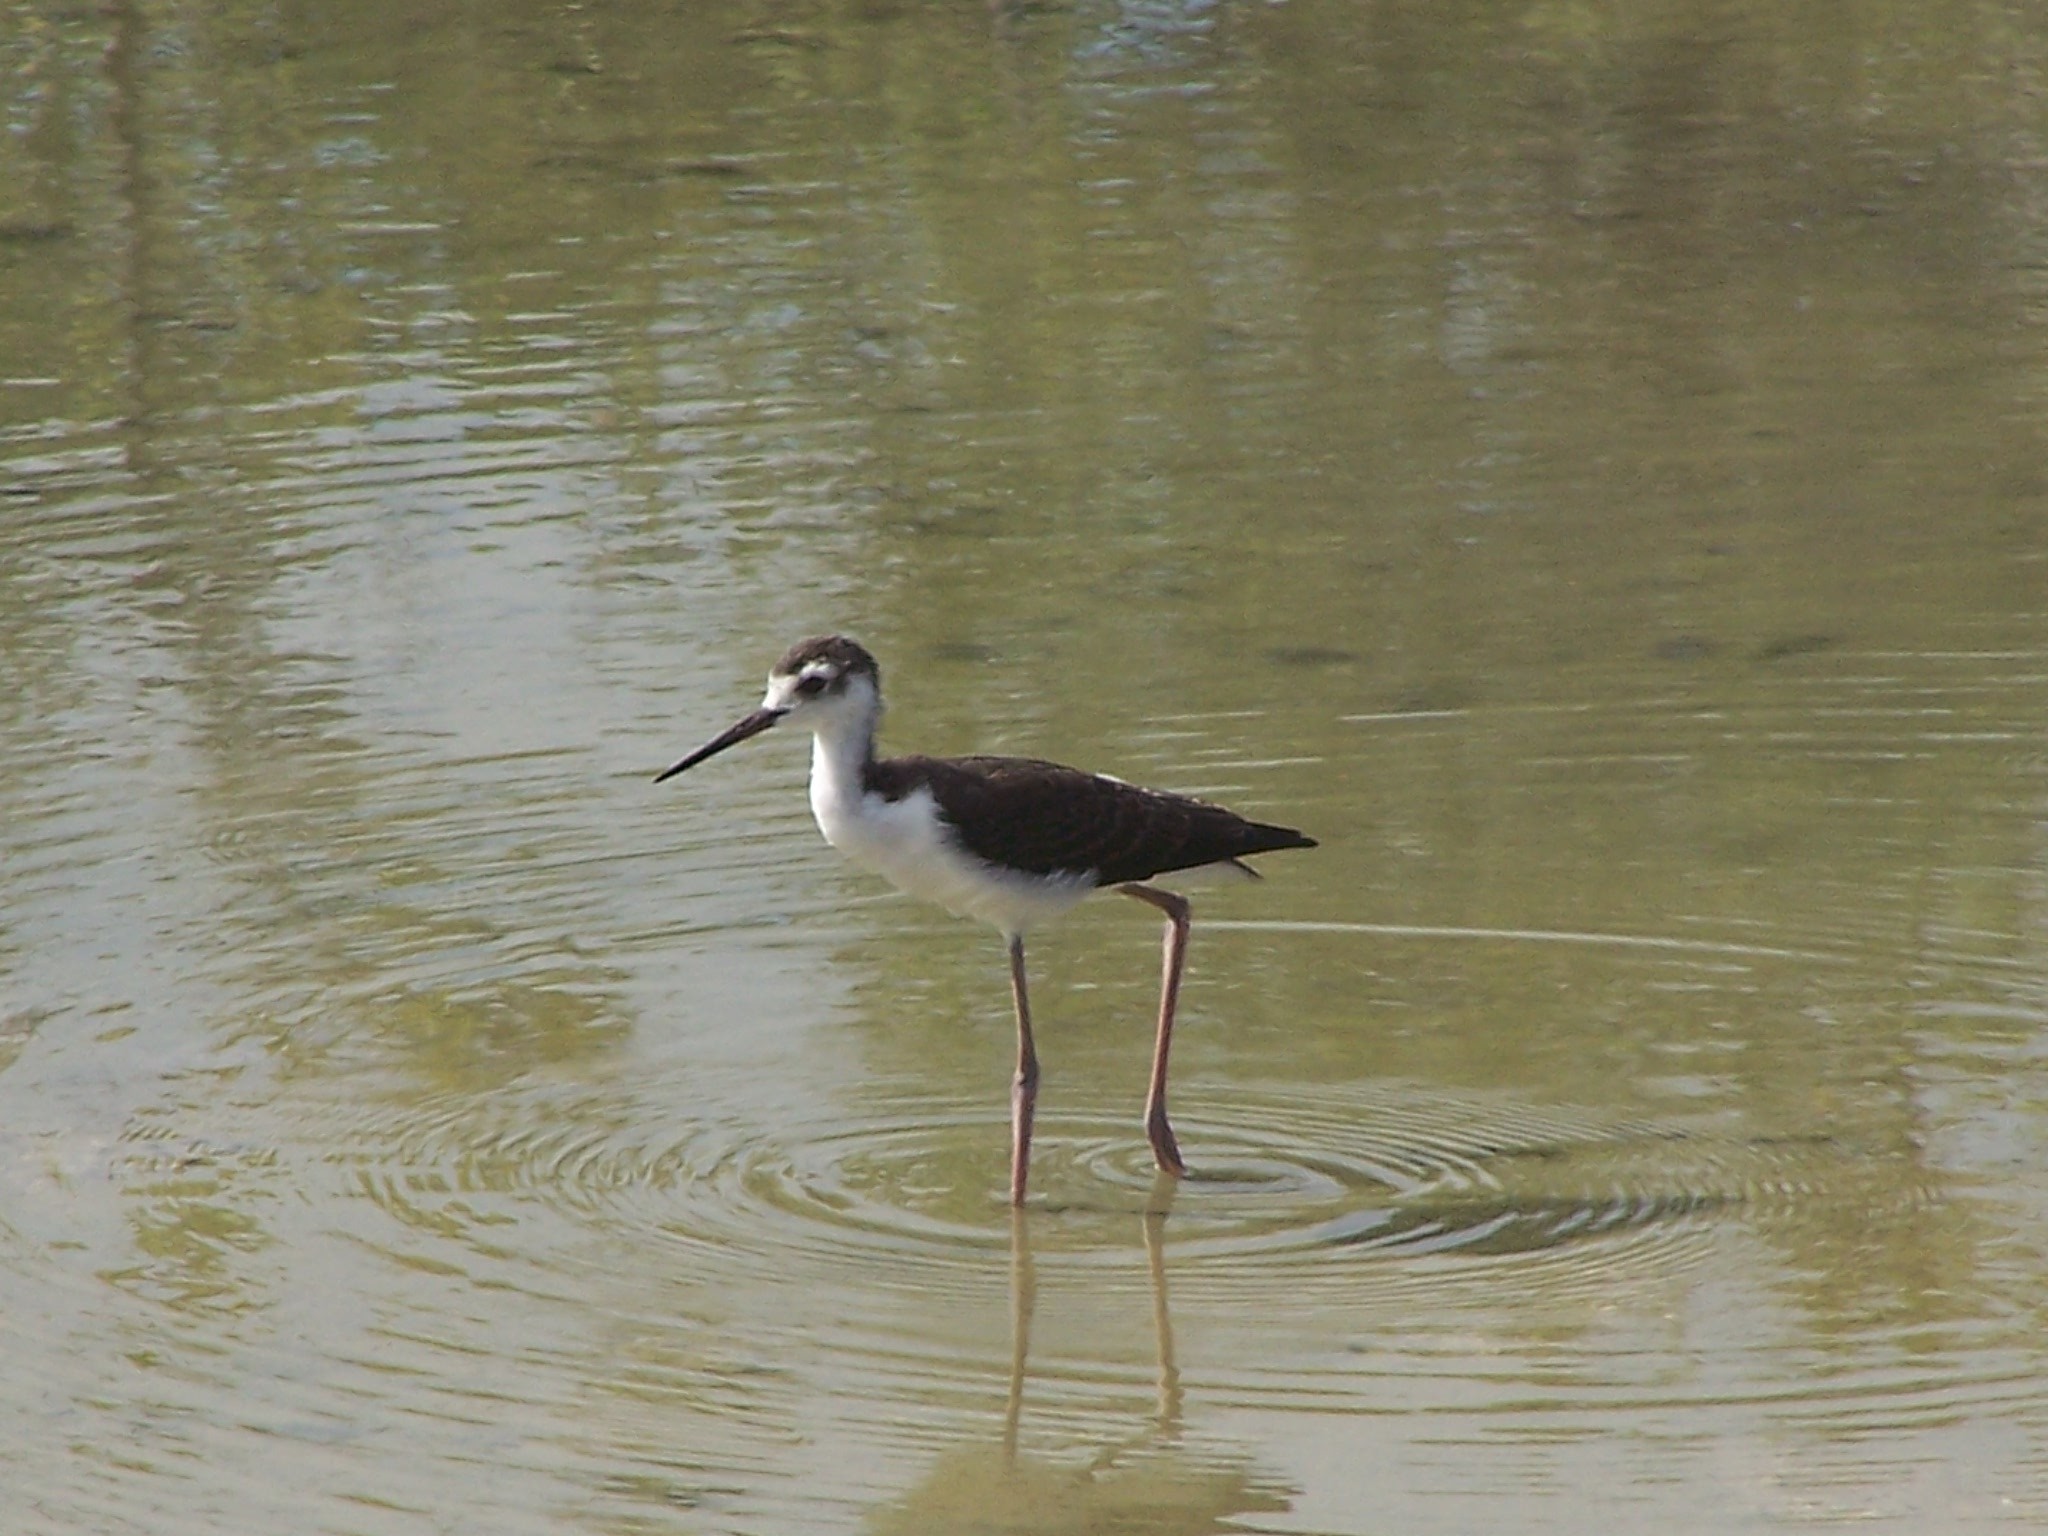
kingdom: Animalia
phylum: Chordata
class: Aves
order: Charadriiformes
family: Recurvirostridae
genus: Himantopus
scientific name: Himantopus mexicanus
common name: Black-necked stilt
